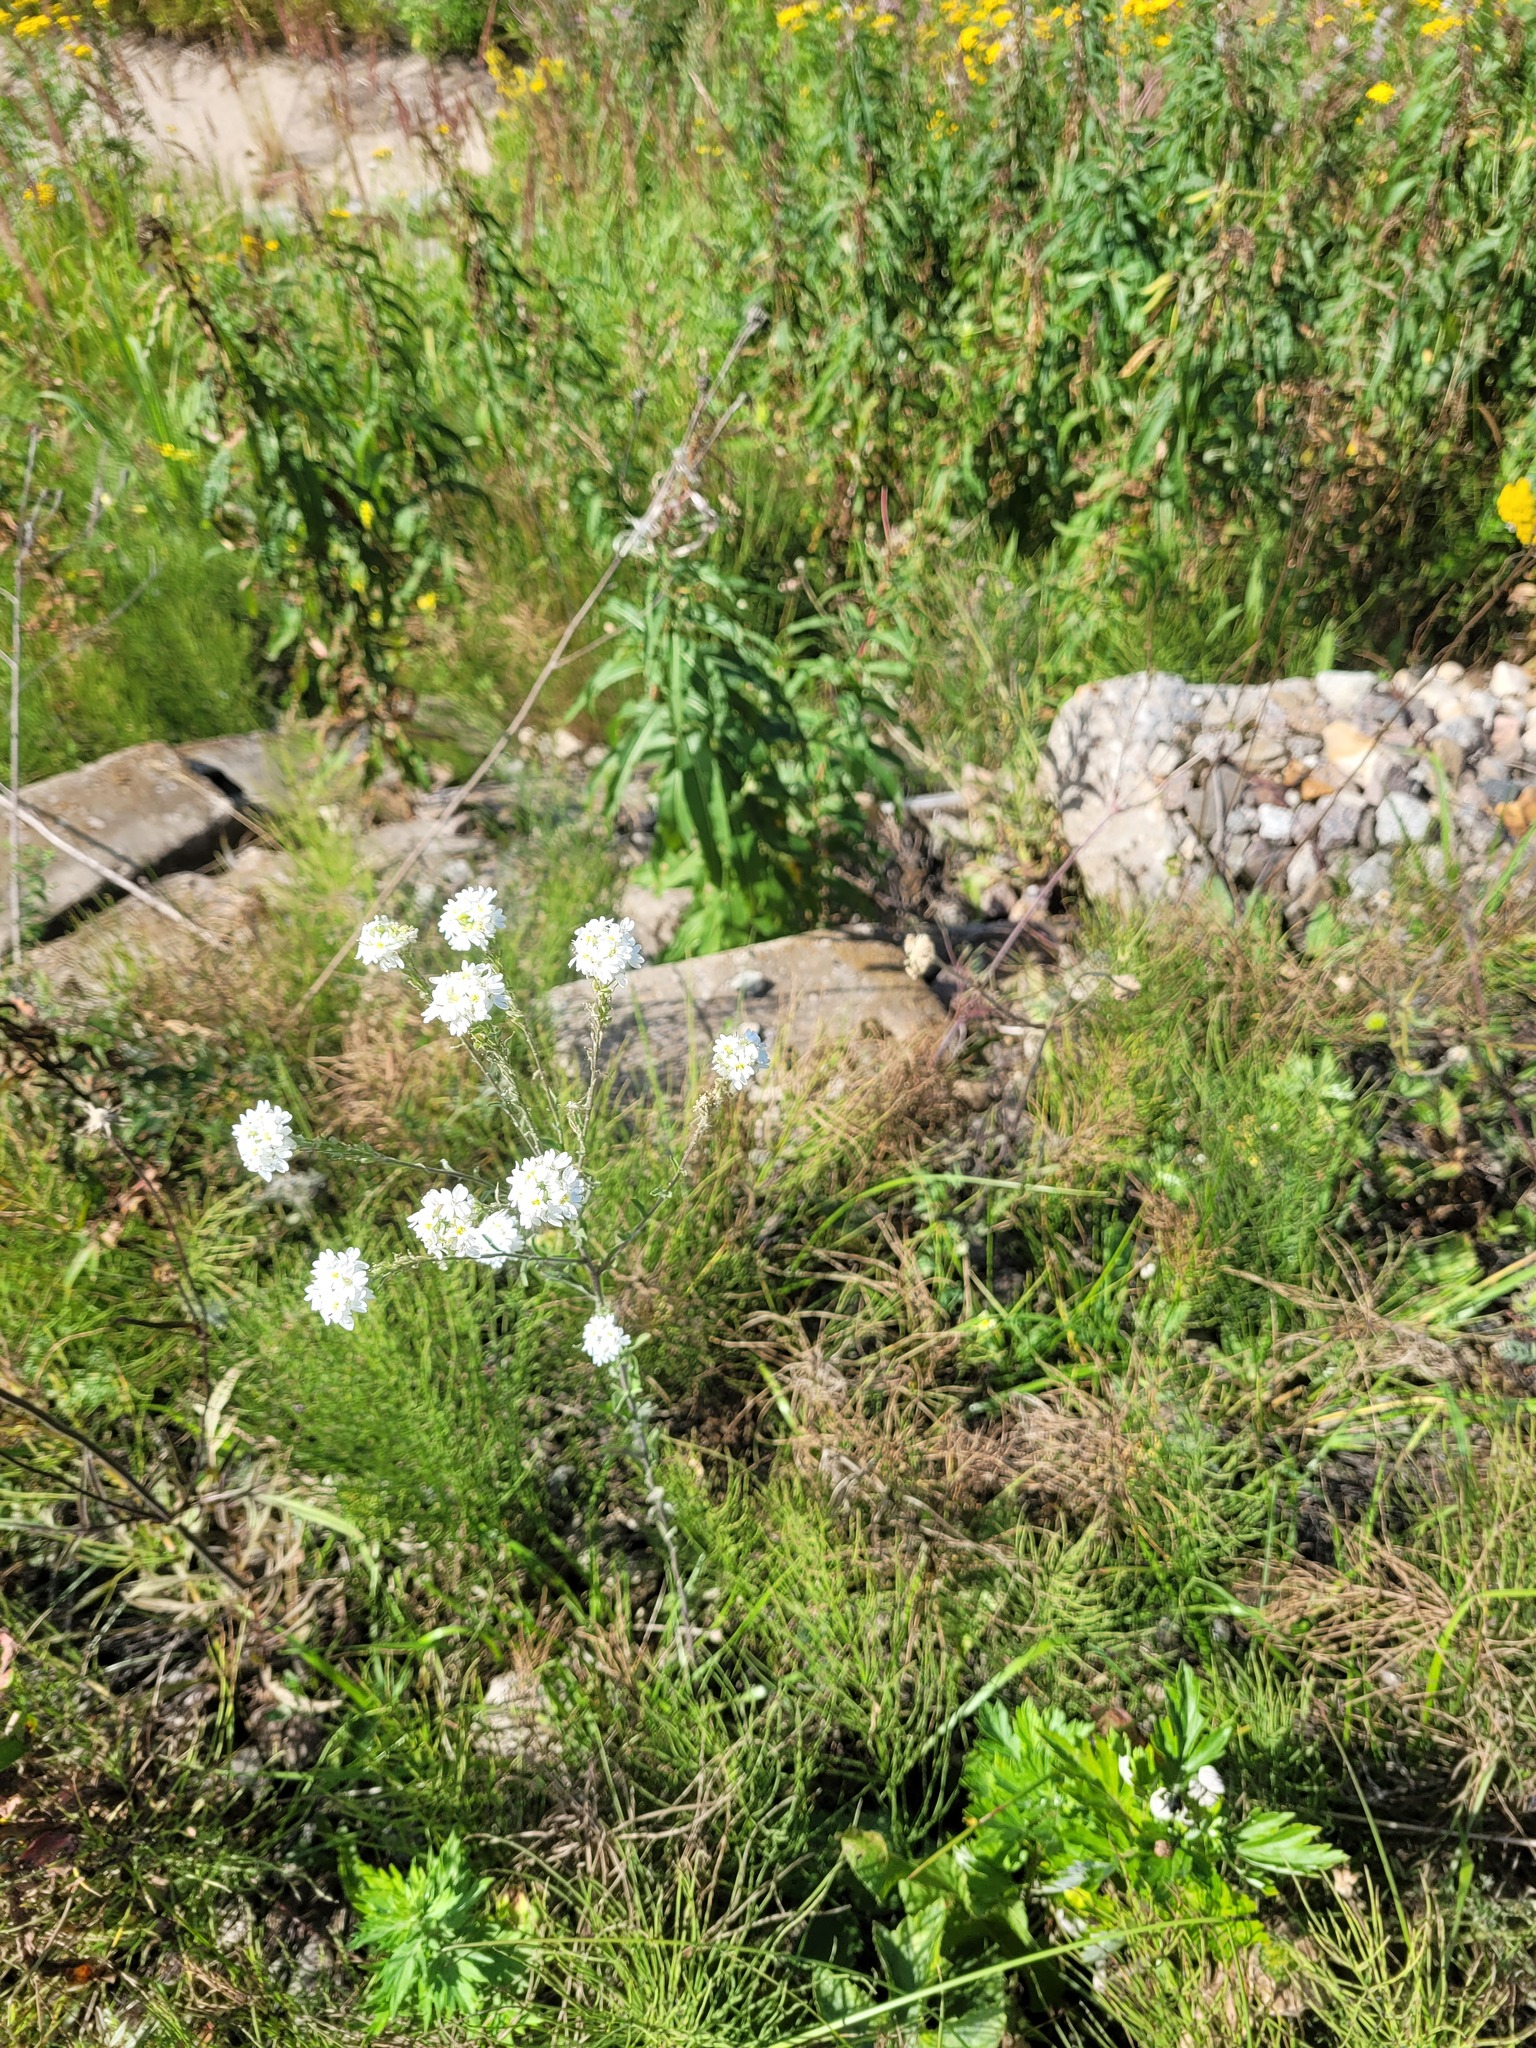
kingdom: Plantae
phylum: Tracheophyta
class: Magnoliopsida
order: Brassicales
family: Brassicaceae
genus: Berteroa
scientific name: Berteroa incana
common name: Hoary alison
